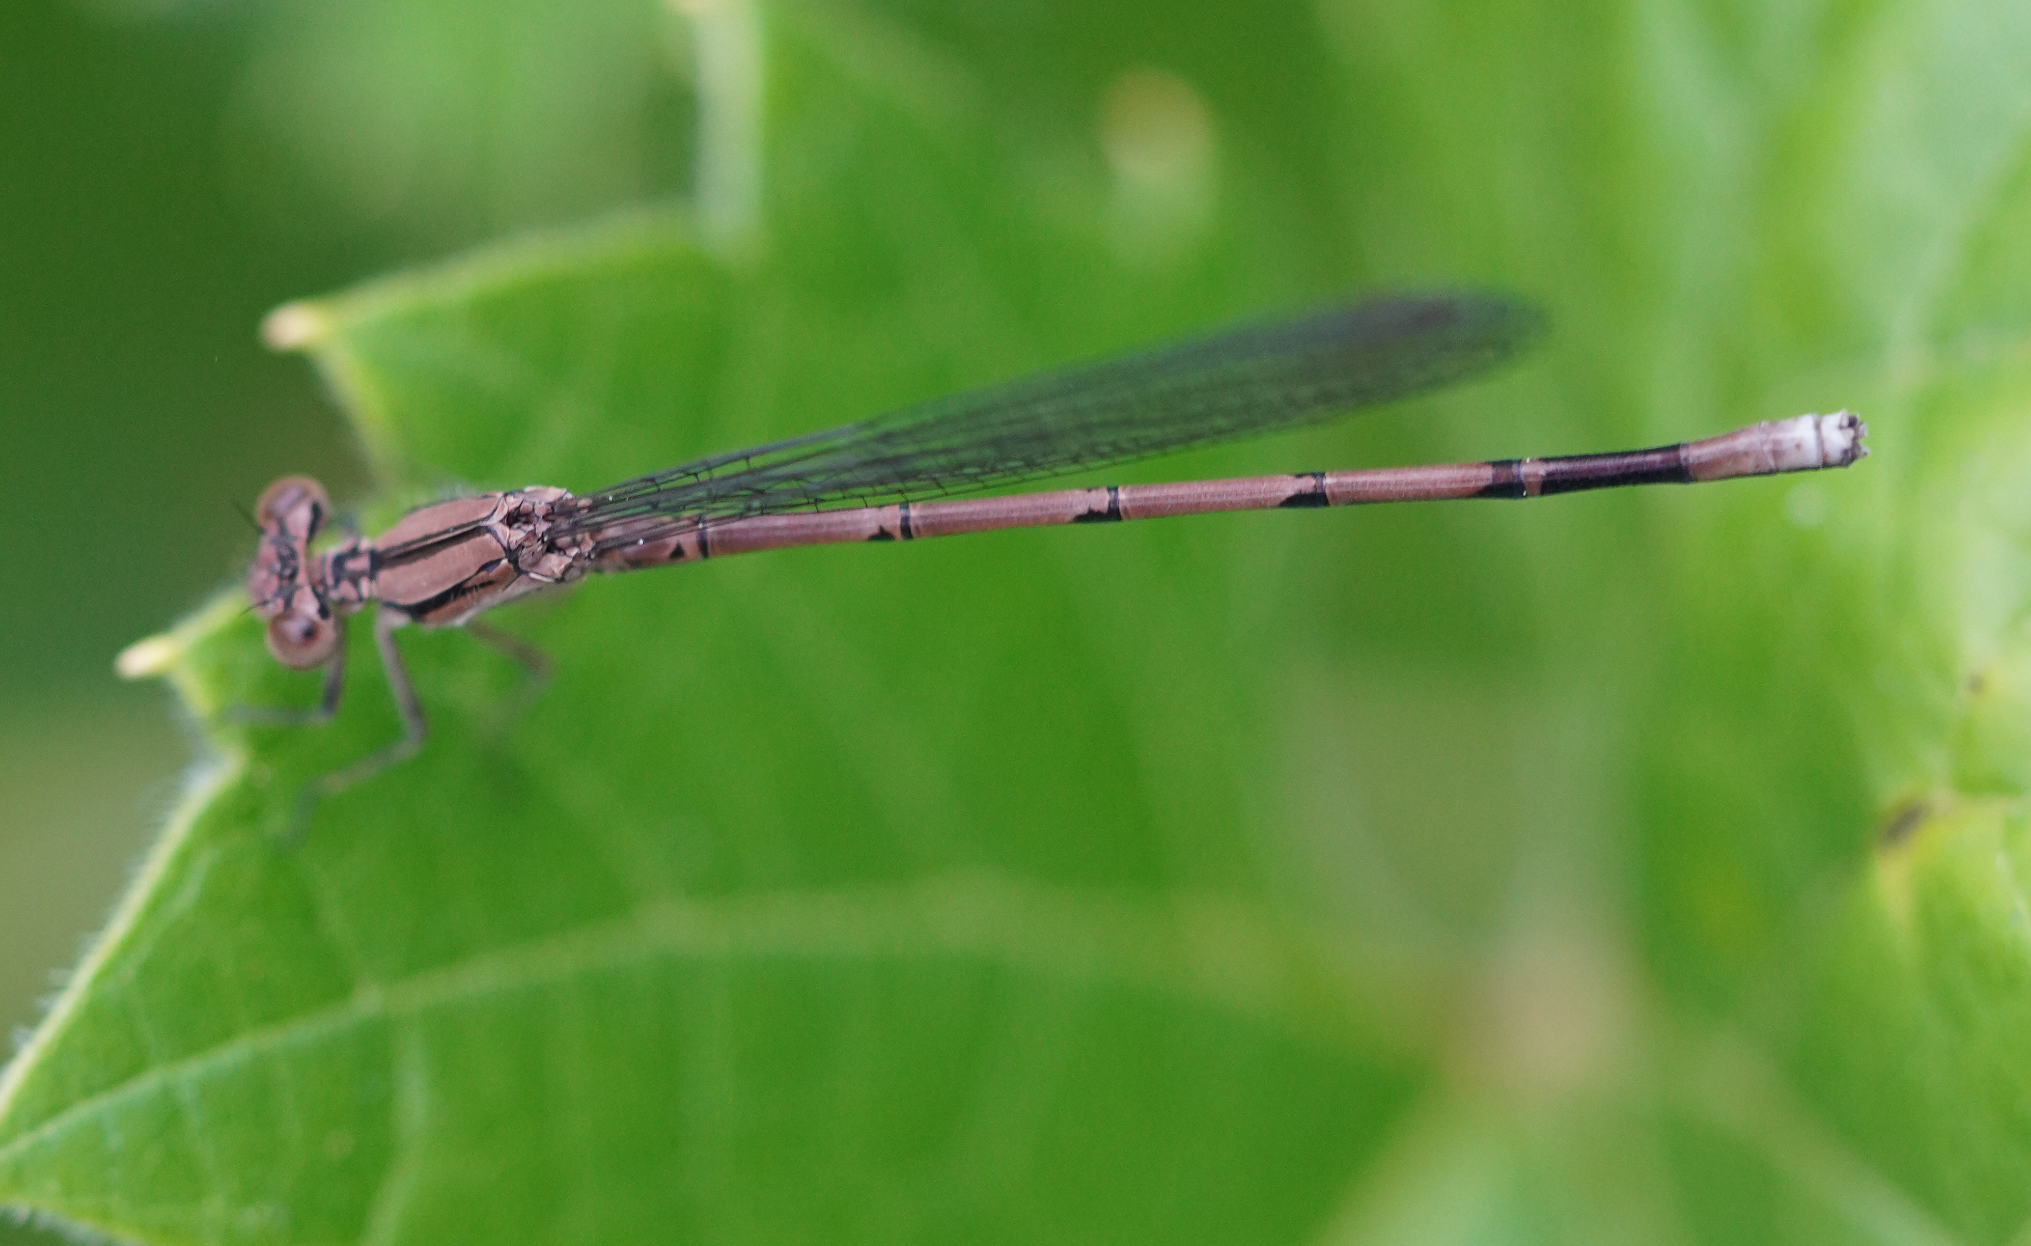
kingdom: Animalia
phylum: Arthropoda
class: Insecta
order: Odonata
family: Coenagrionidae
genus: Argia
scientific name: Argia fumipennis
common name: Variable dancer
